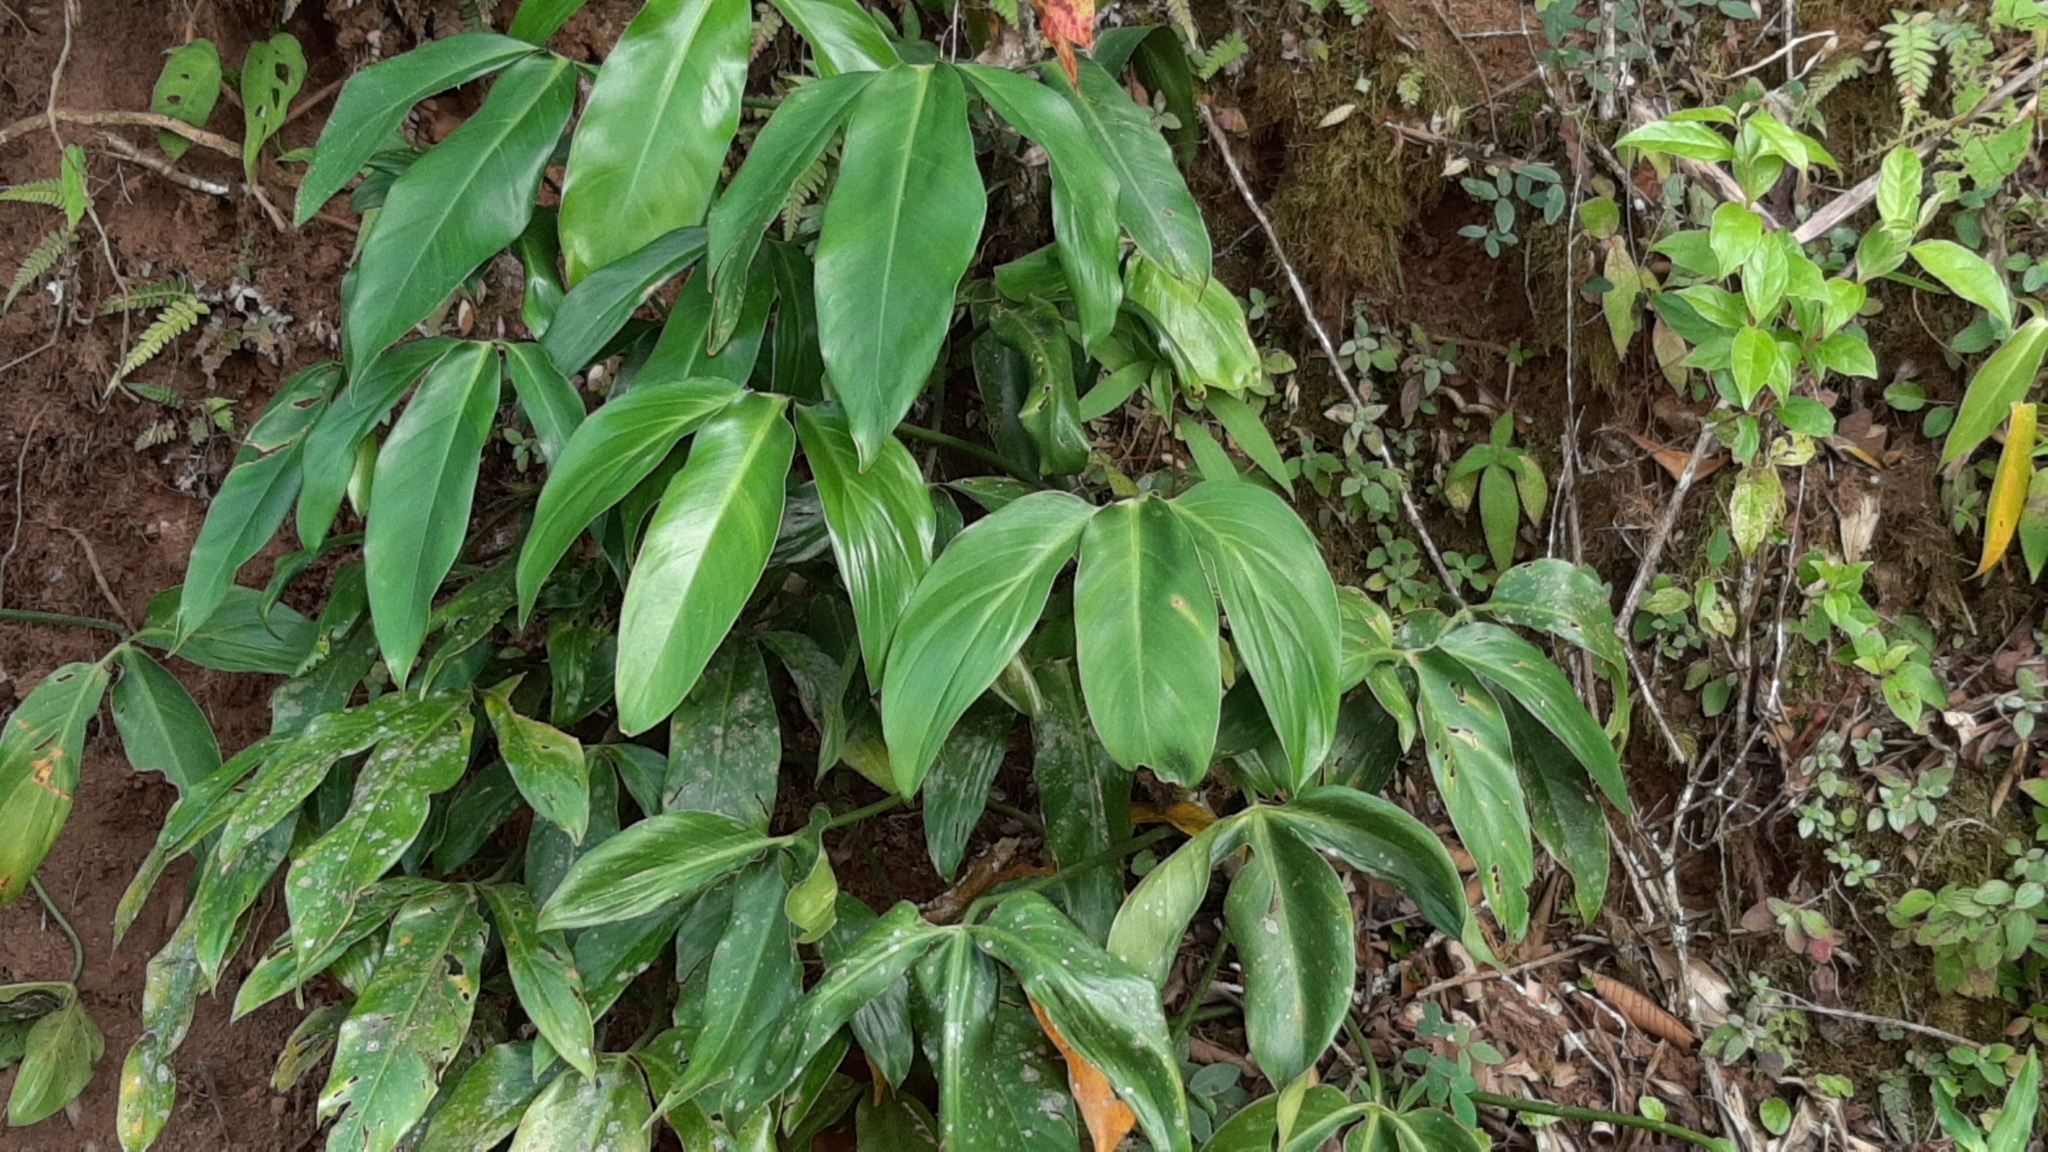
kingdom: Plantae
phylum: Tracheophyta
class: Liliopsida
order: Alismatales
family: Araceae
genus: Philodendron
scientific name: Philodendron tripartitum
